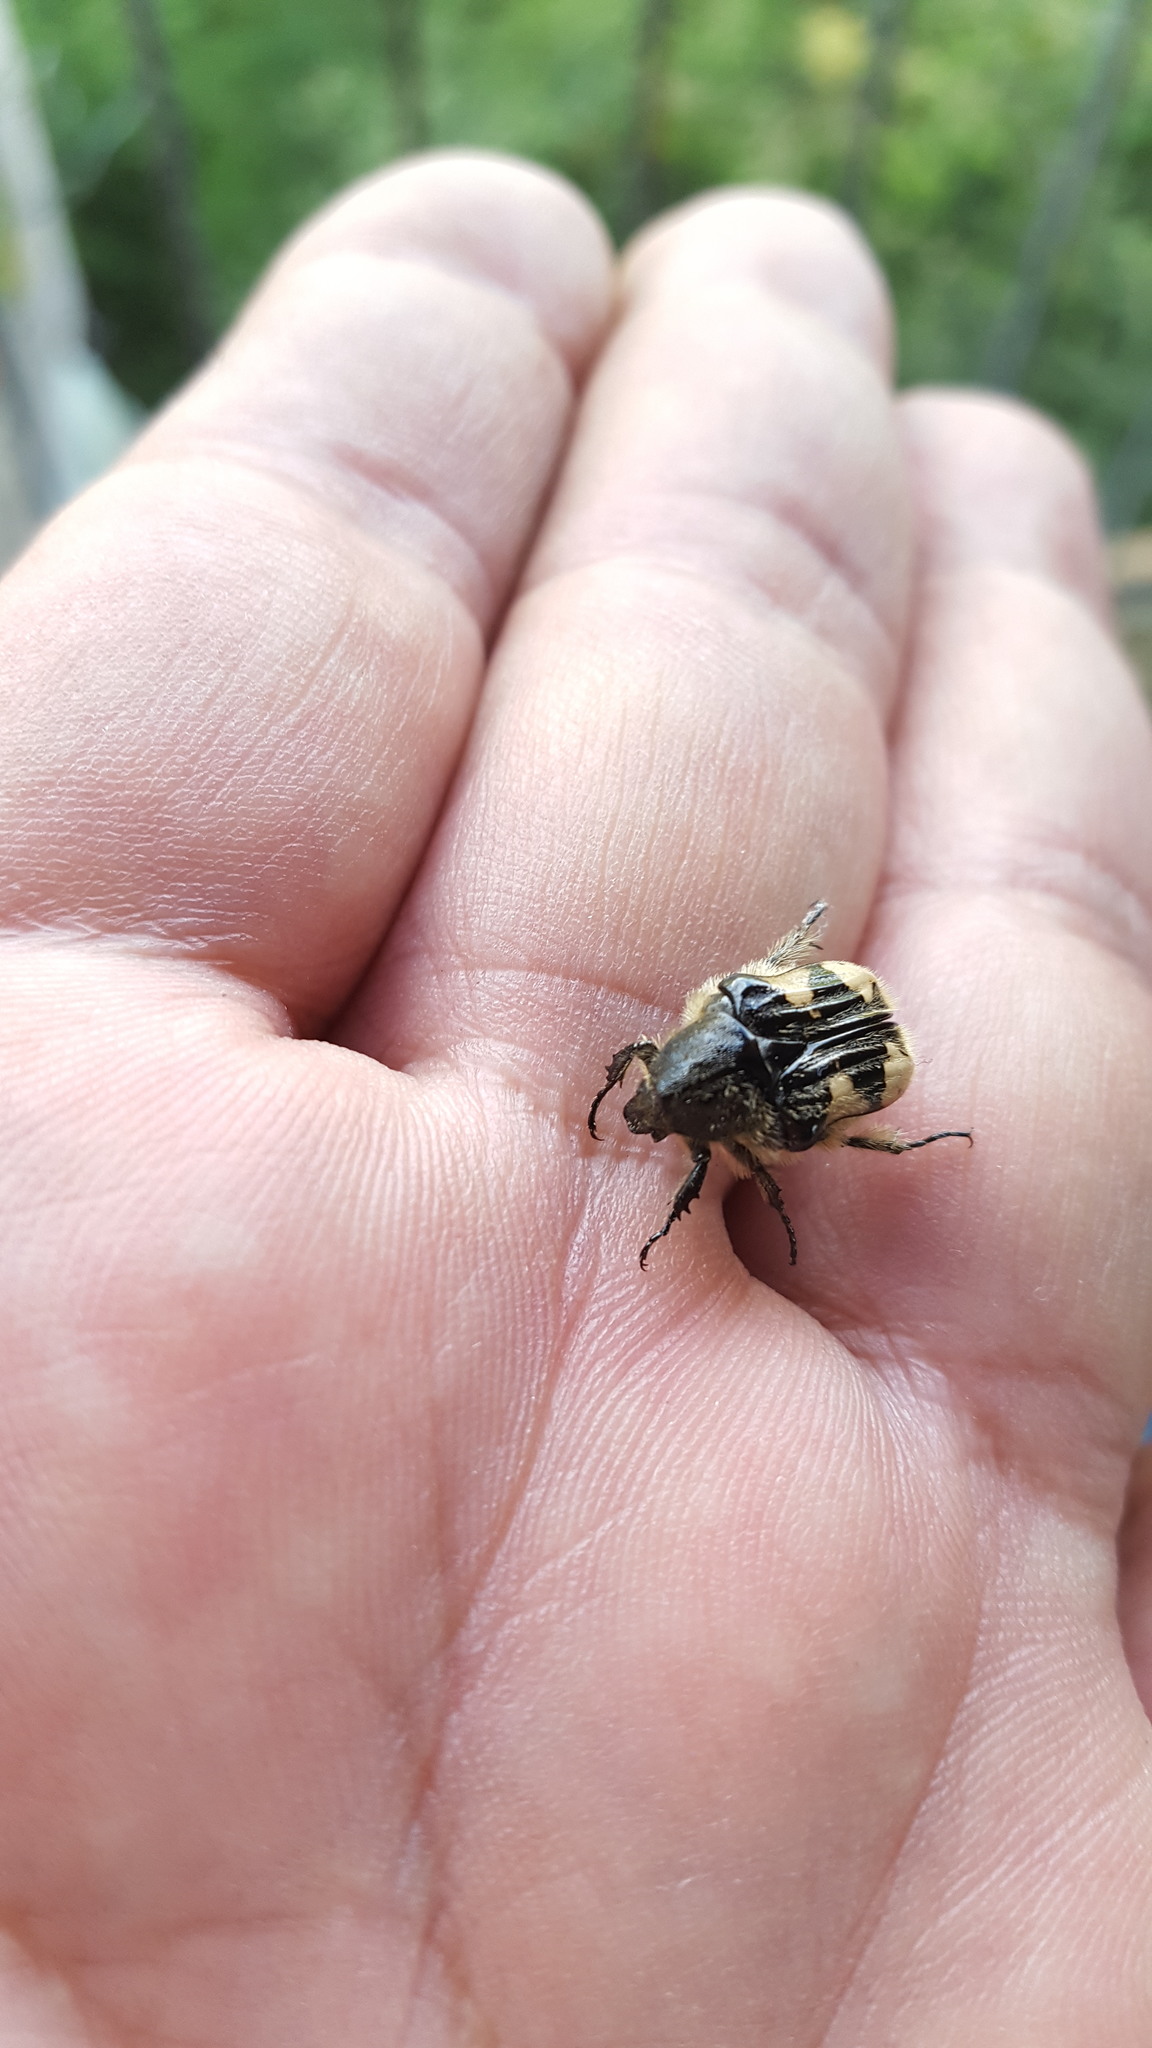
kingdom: Animalia
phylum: Arthropoda
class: Insecta
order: Coleoptera
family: Scarabaeidae
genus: Euphoria
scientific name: Euphoria basalis
